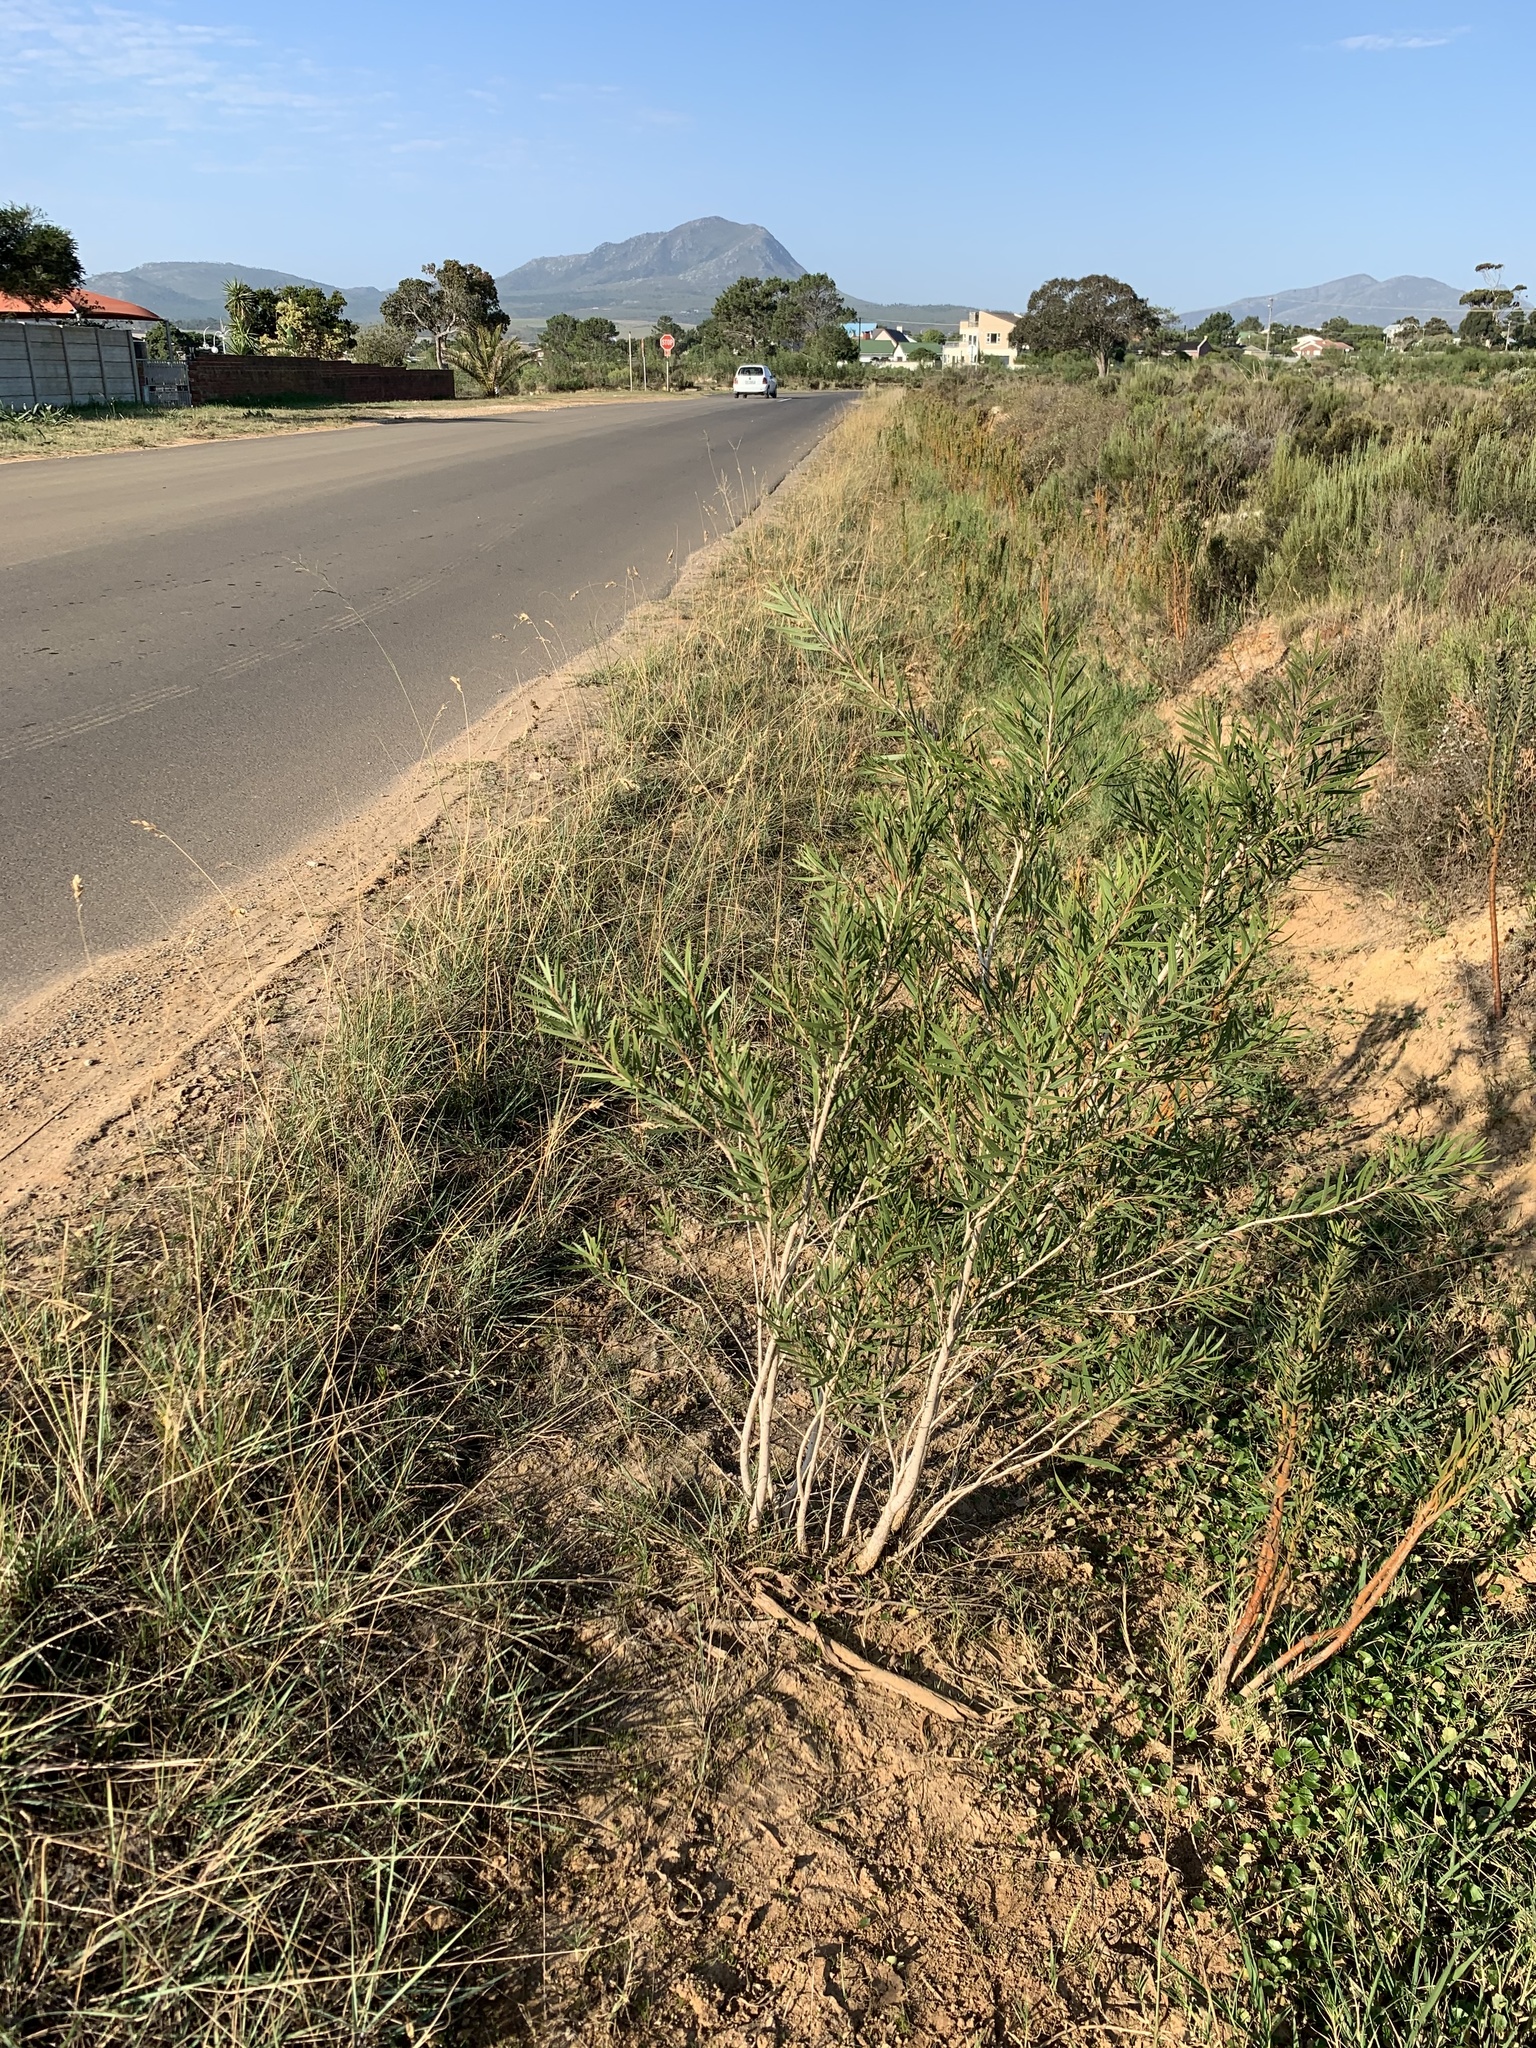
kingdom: Plantae
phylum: Tracheophyta
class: Magnoliopsida
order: Myrtales
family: Myrtaceae
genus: Callistemon
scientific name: Callistemon viminalis
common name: Drooping bottlebrush
